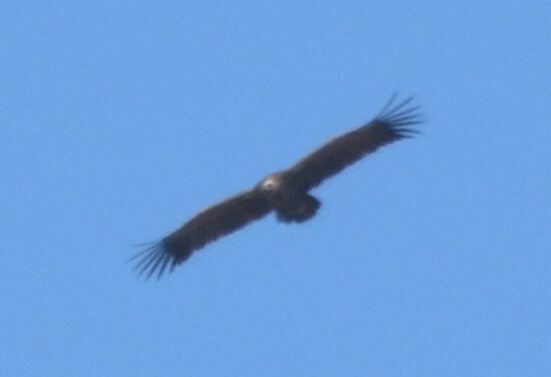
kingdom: Animalia
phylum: Chordata
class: Aves
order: Accipitriformes
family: Accipitridae
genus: Aegypius
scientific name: Aegypius monachus
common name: Cinereous vulture
